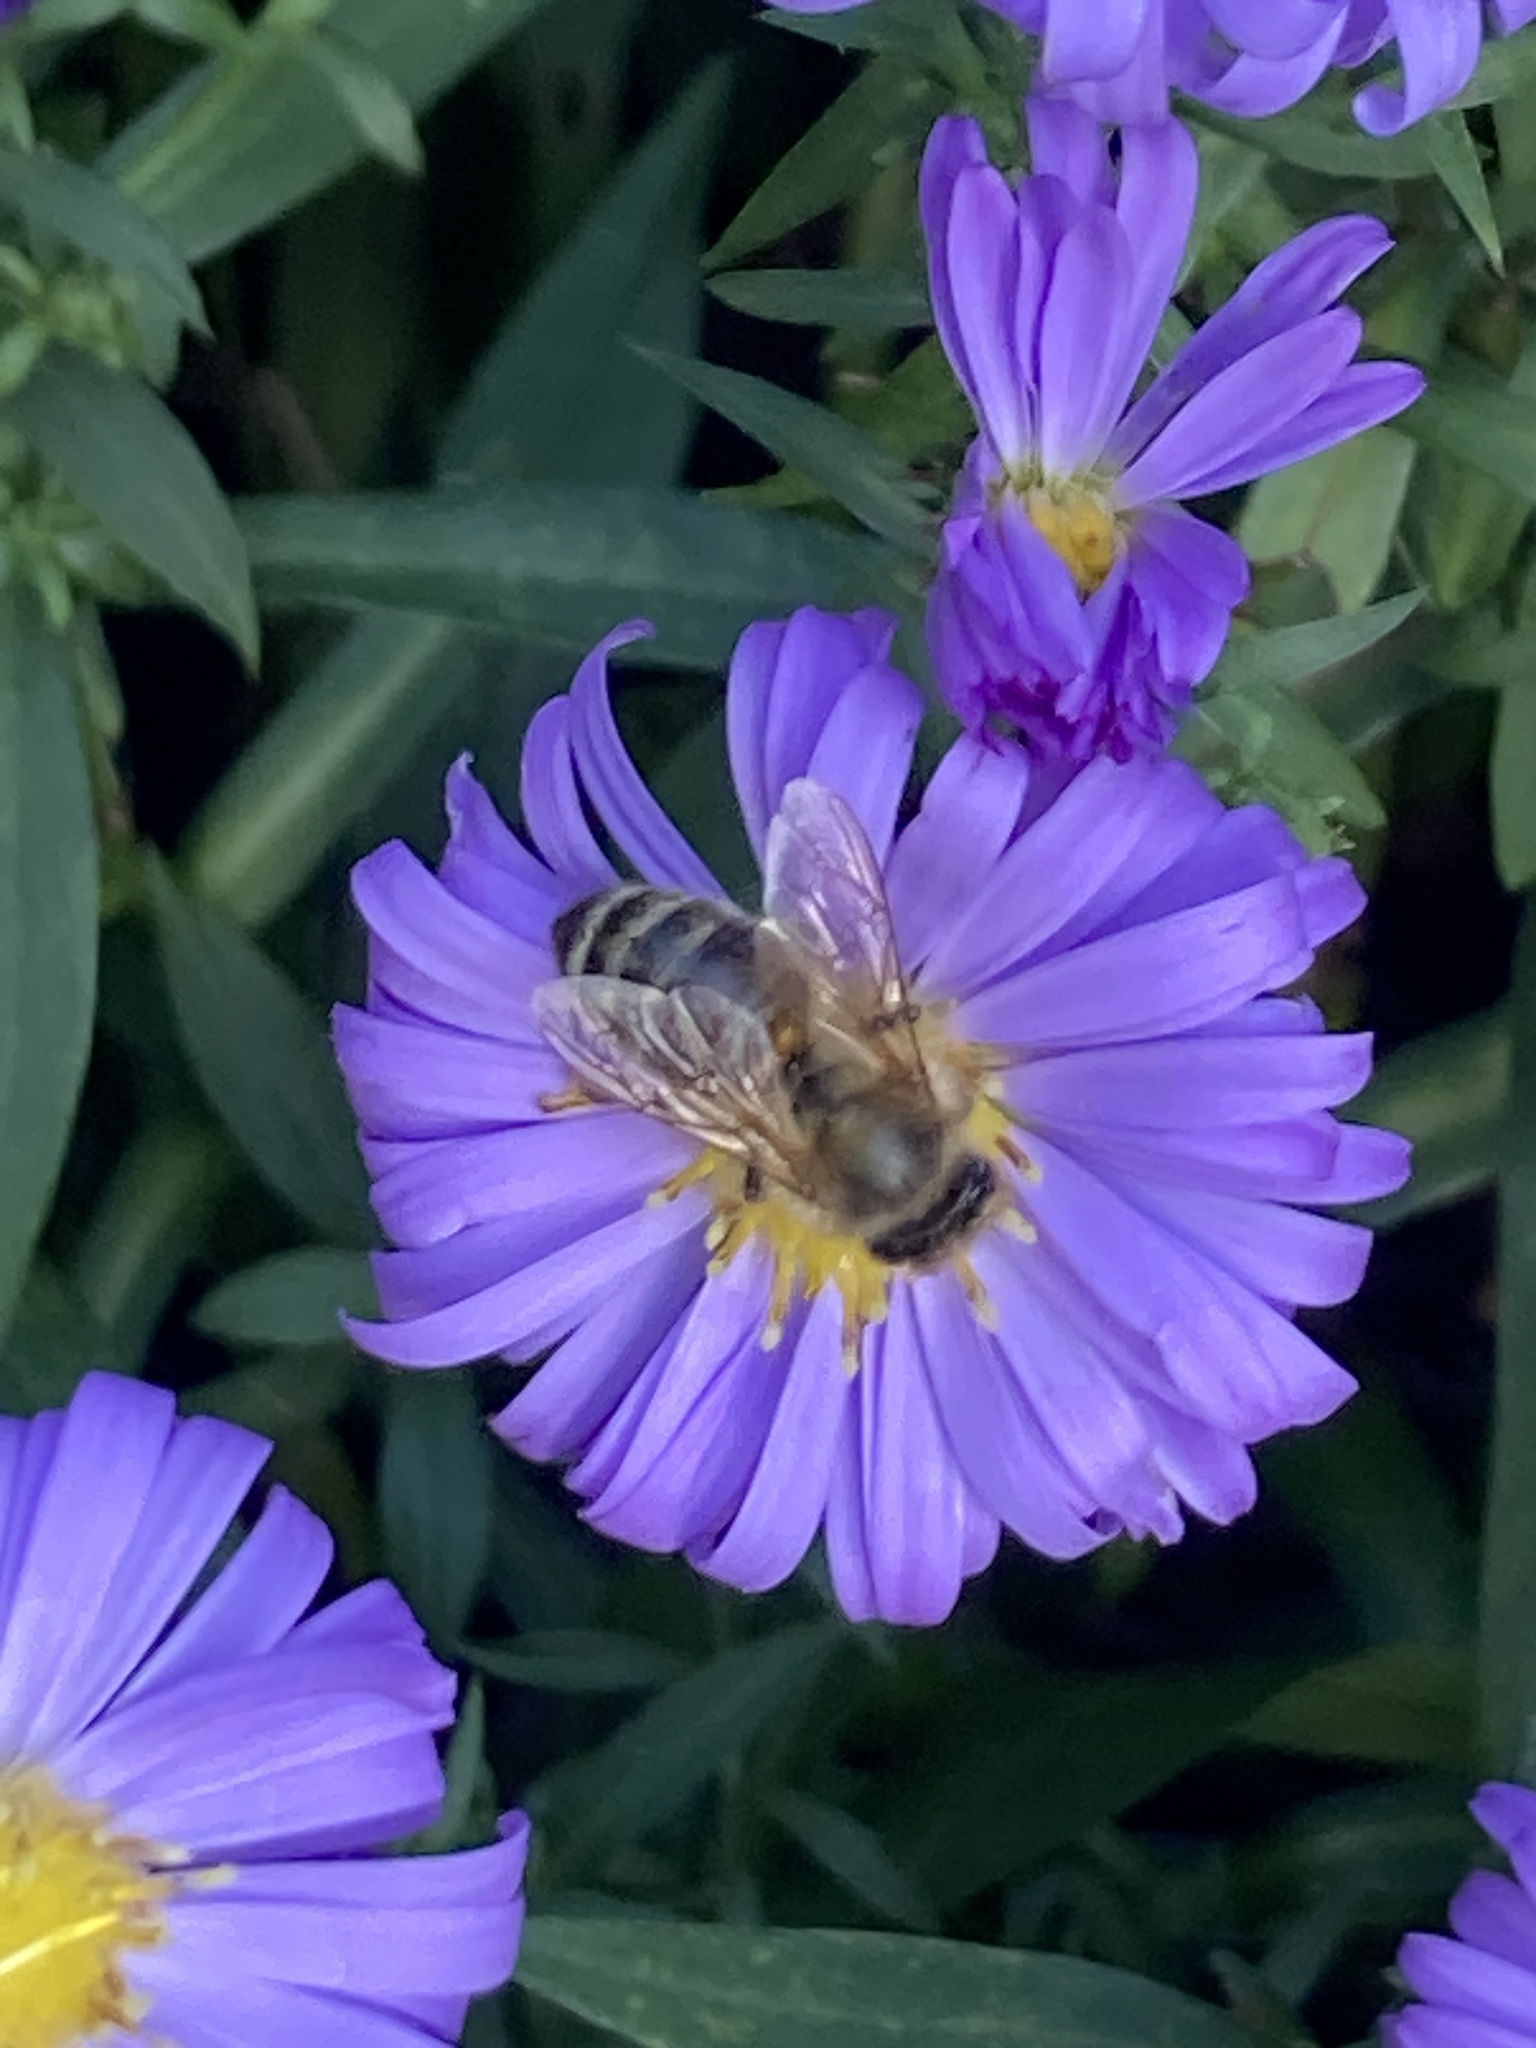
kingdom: Animalia
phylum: Arthropoda
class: Insecta
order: Hymenoptera
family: Apidae
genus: Apis
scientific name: Apis mellifera
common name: Honey bee
